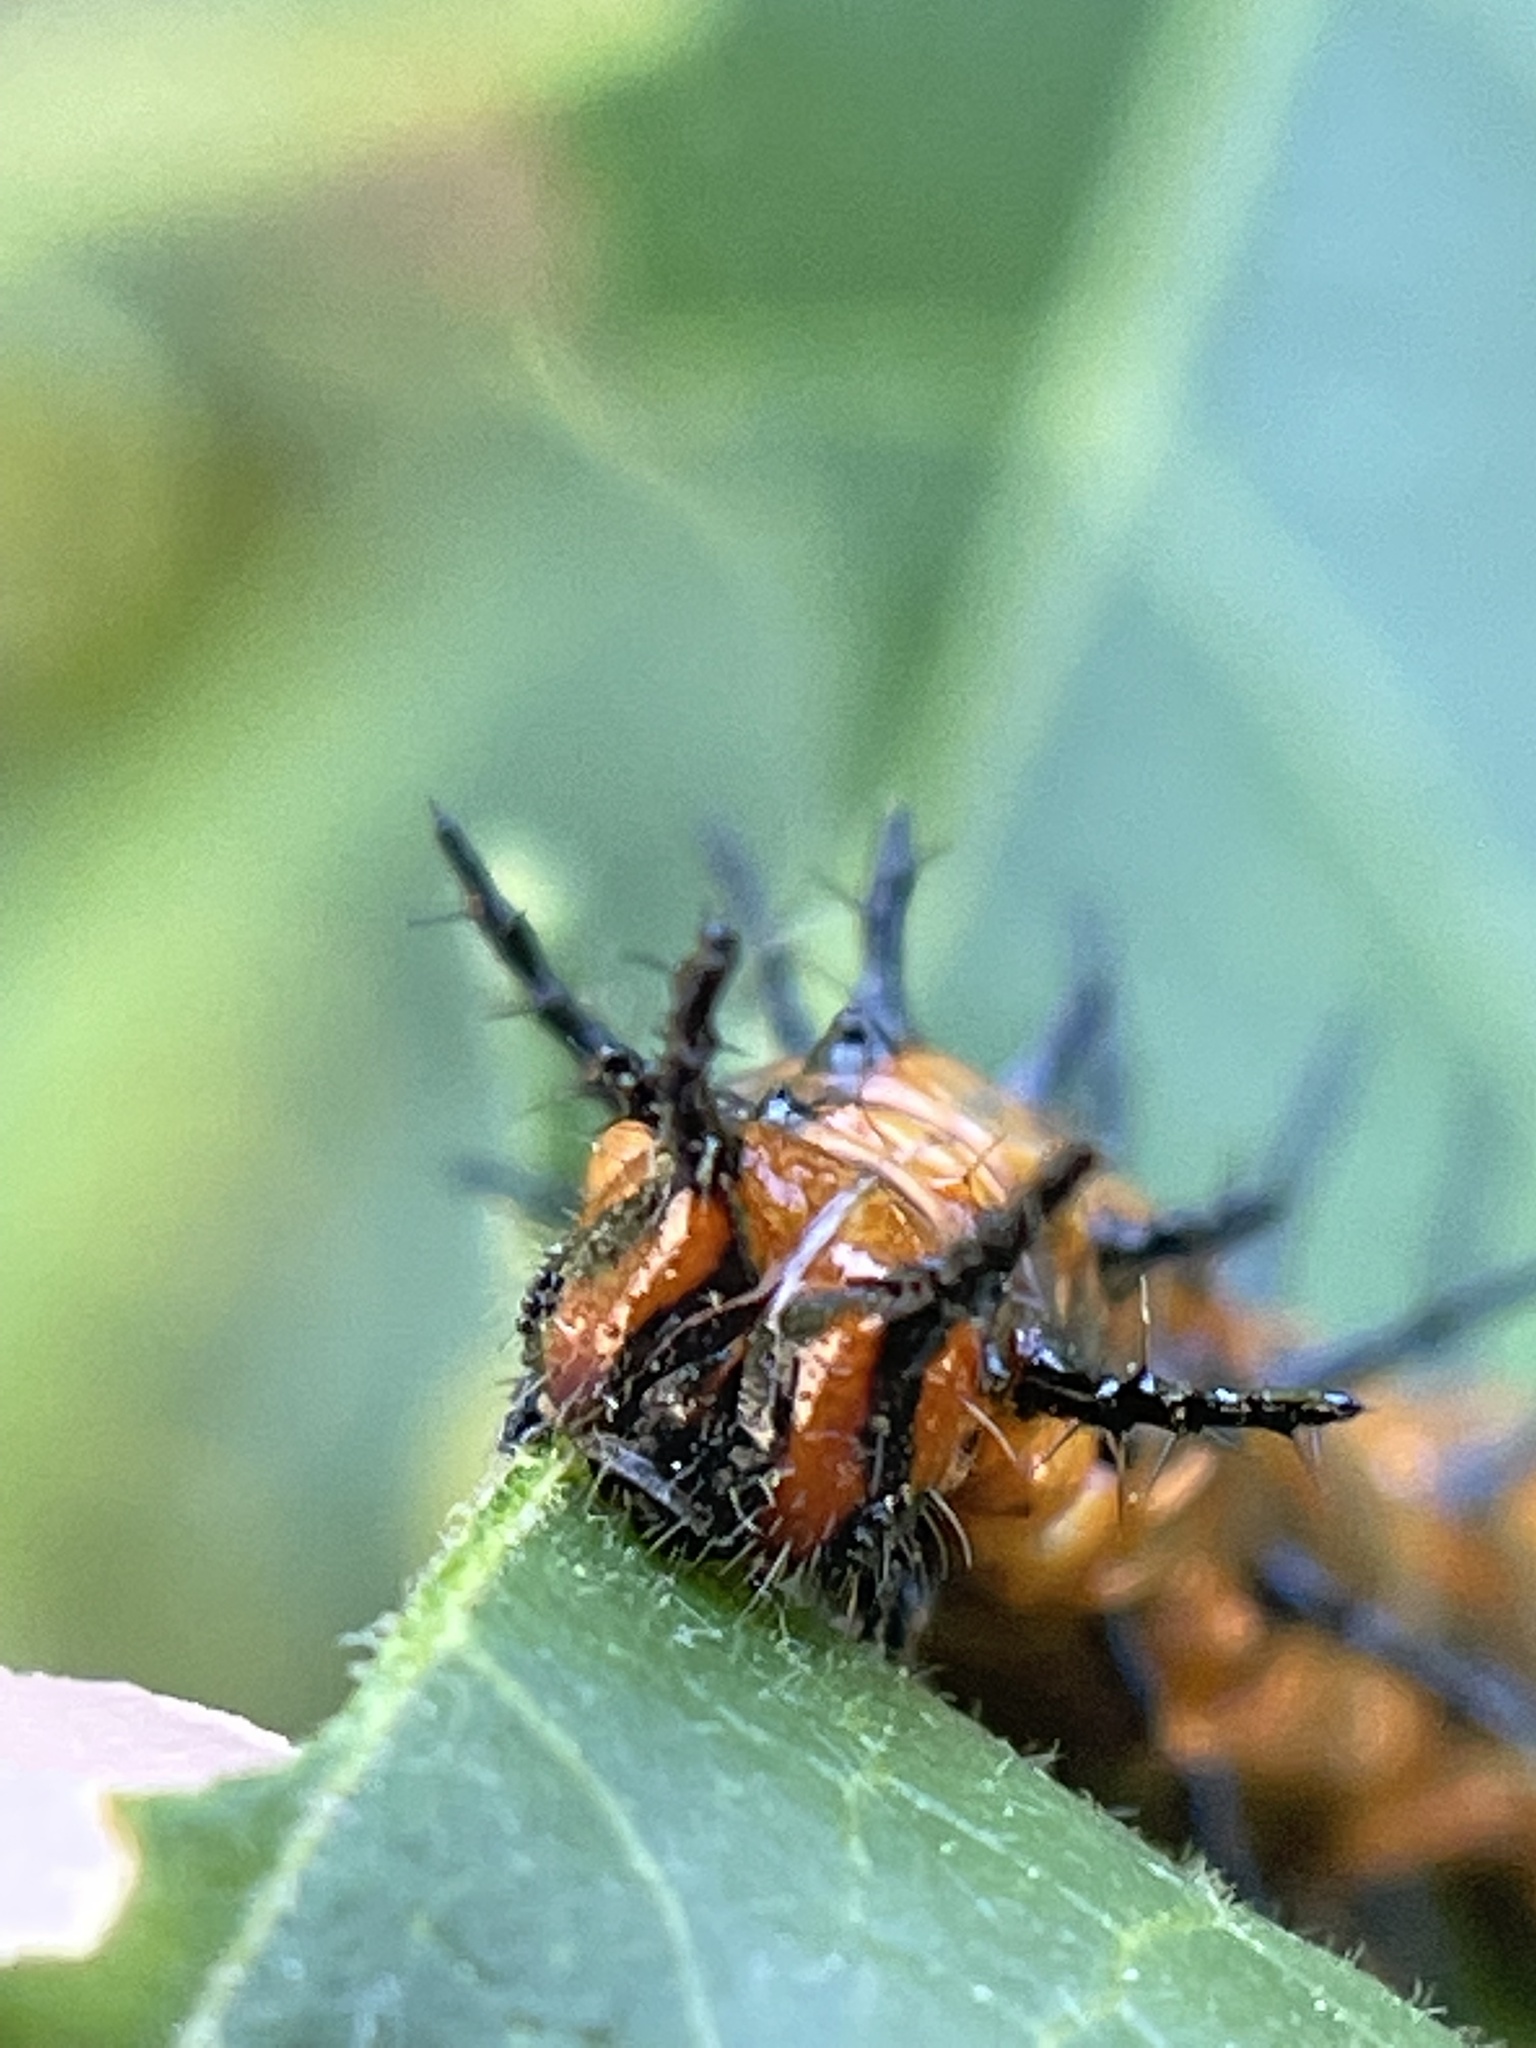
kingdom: Animalia
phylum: Arthropoda
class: Insecta
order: Lepidoptera
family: Nymphalidae
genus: Dione
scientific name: Dione vanillae
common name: Gulf fritillary
